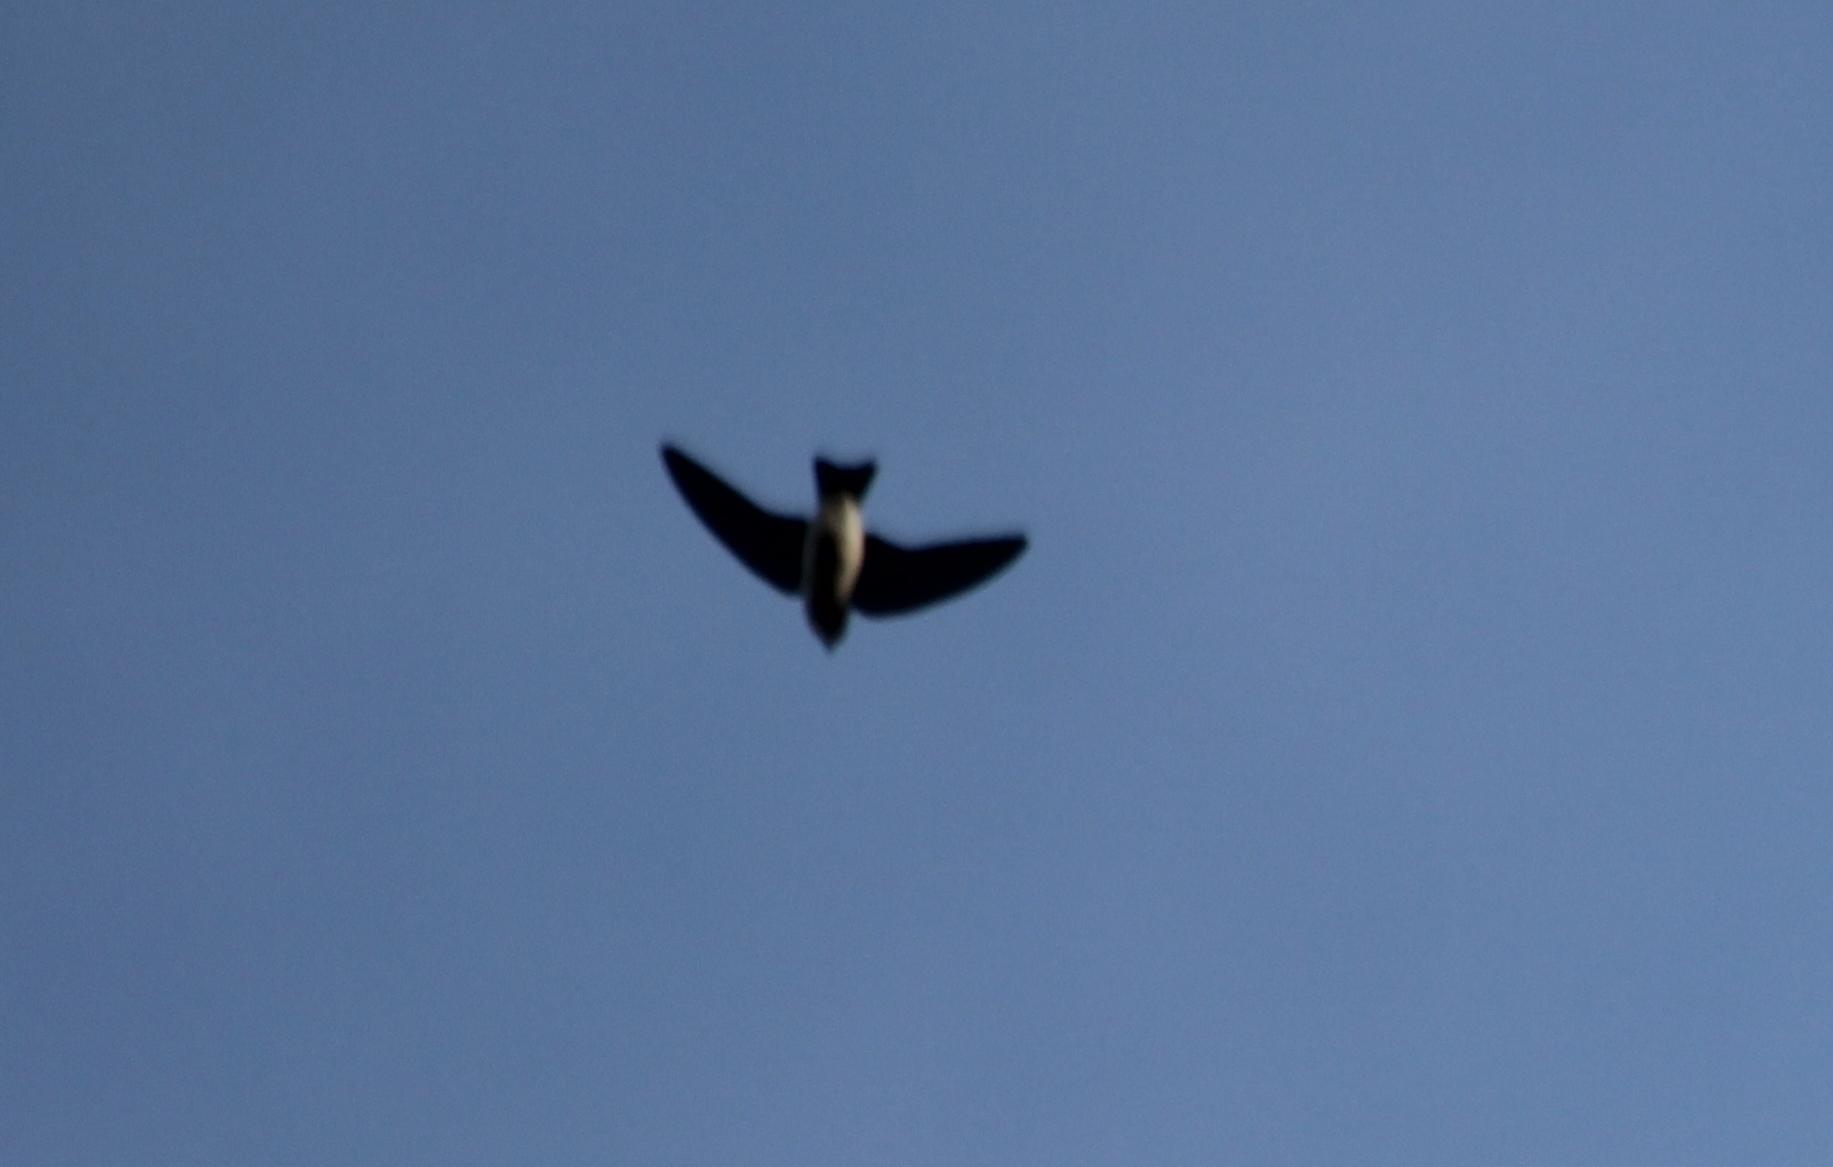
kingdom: Animalia
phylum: Chordata
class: Aves
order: Passeriformes
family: Hirundinidae
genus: Tachycineta
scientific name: Tachycineta bicolor
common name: Tree swallow
